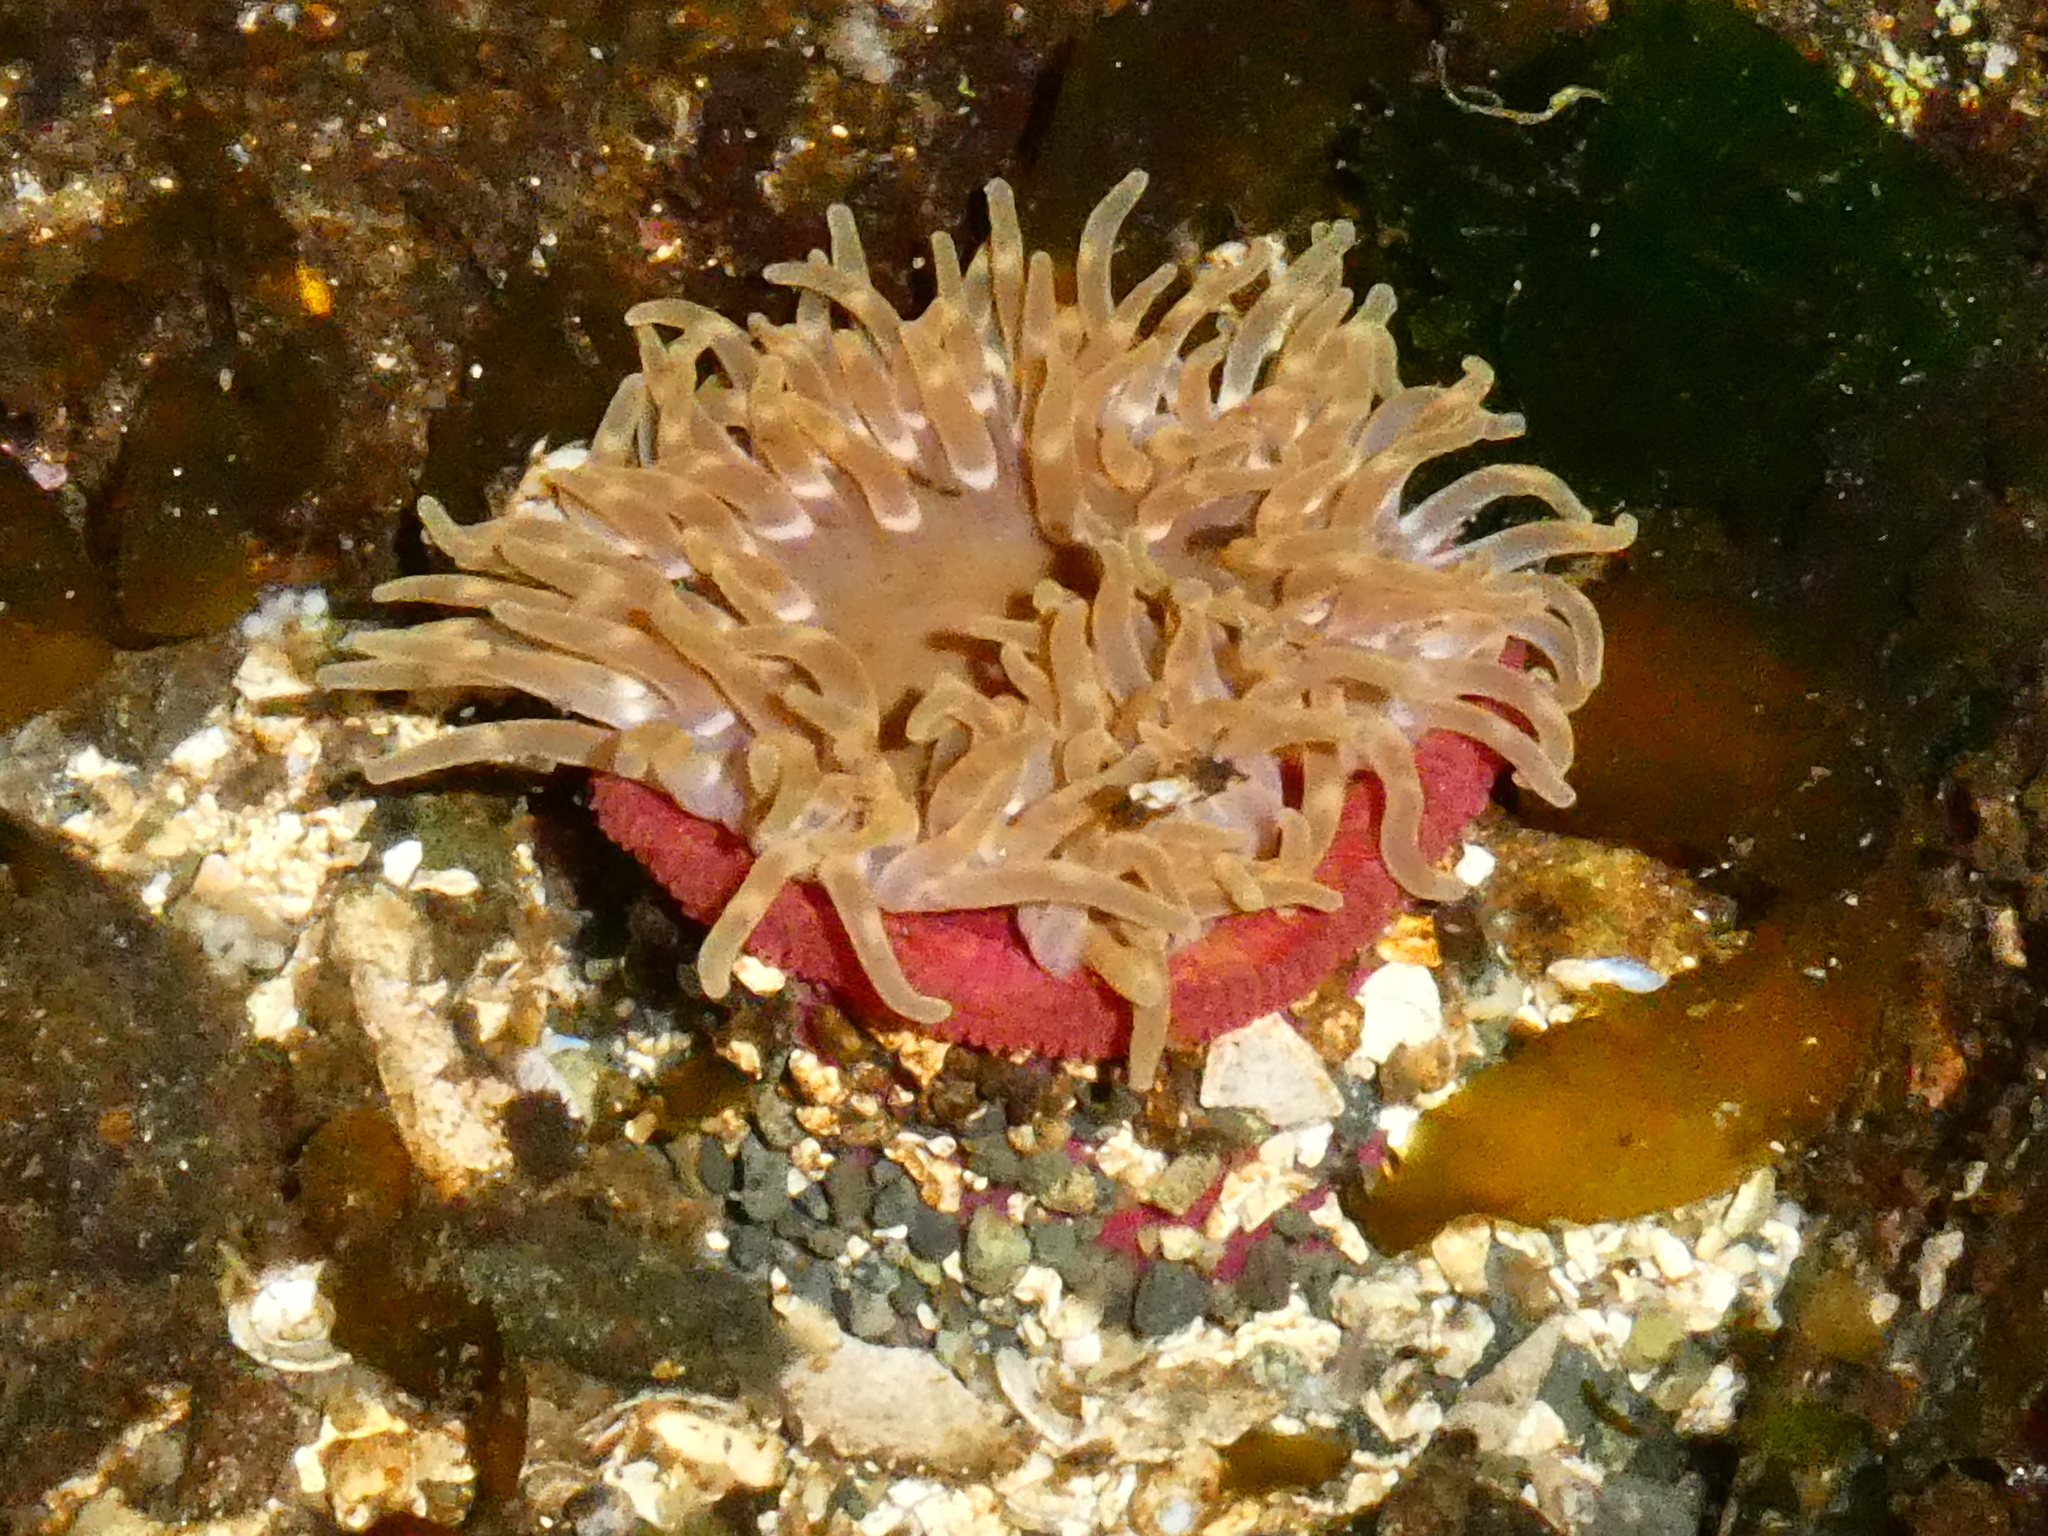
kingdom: Animalia
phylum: Cnidaria
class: Anthozoa
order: Actiniaria
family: Actiniidae
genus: Urticina
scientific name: Urticina clandestina
